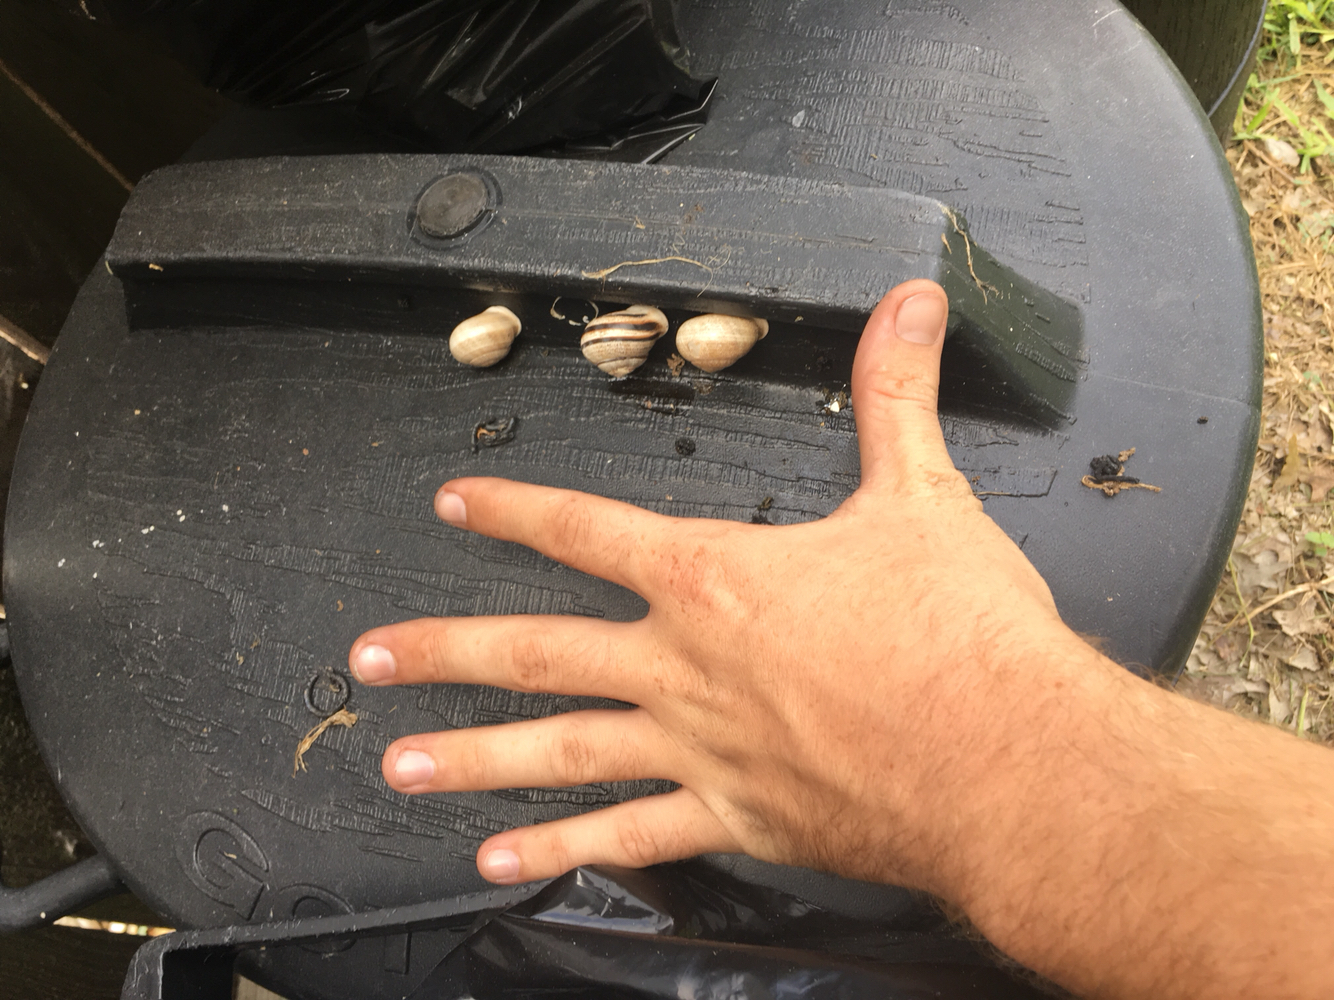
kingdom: Animalia
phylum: Mollusca
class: Gastropoda
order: Stylommatophora
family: Helicidae
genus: Otala
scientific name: Otala lactea
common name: Milk snail
